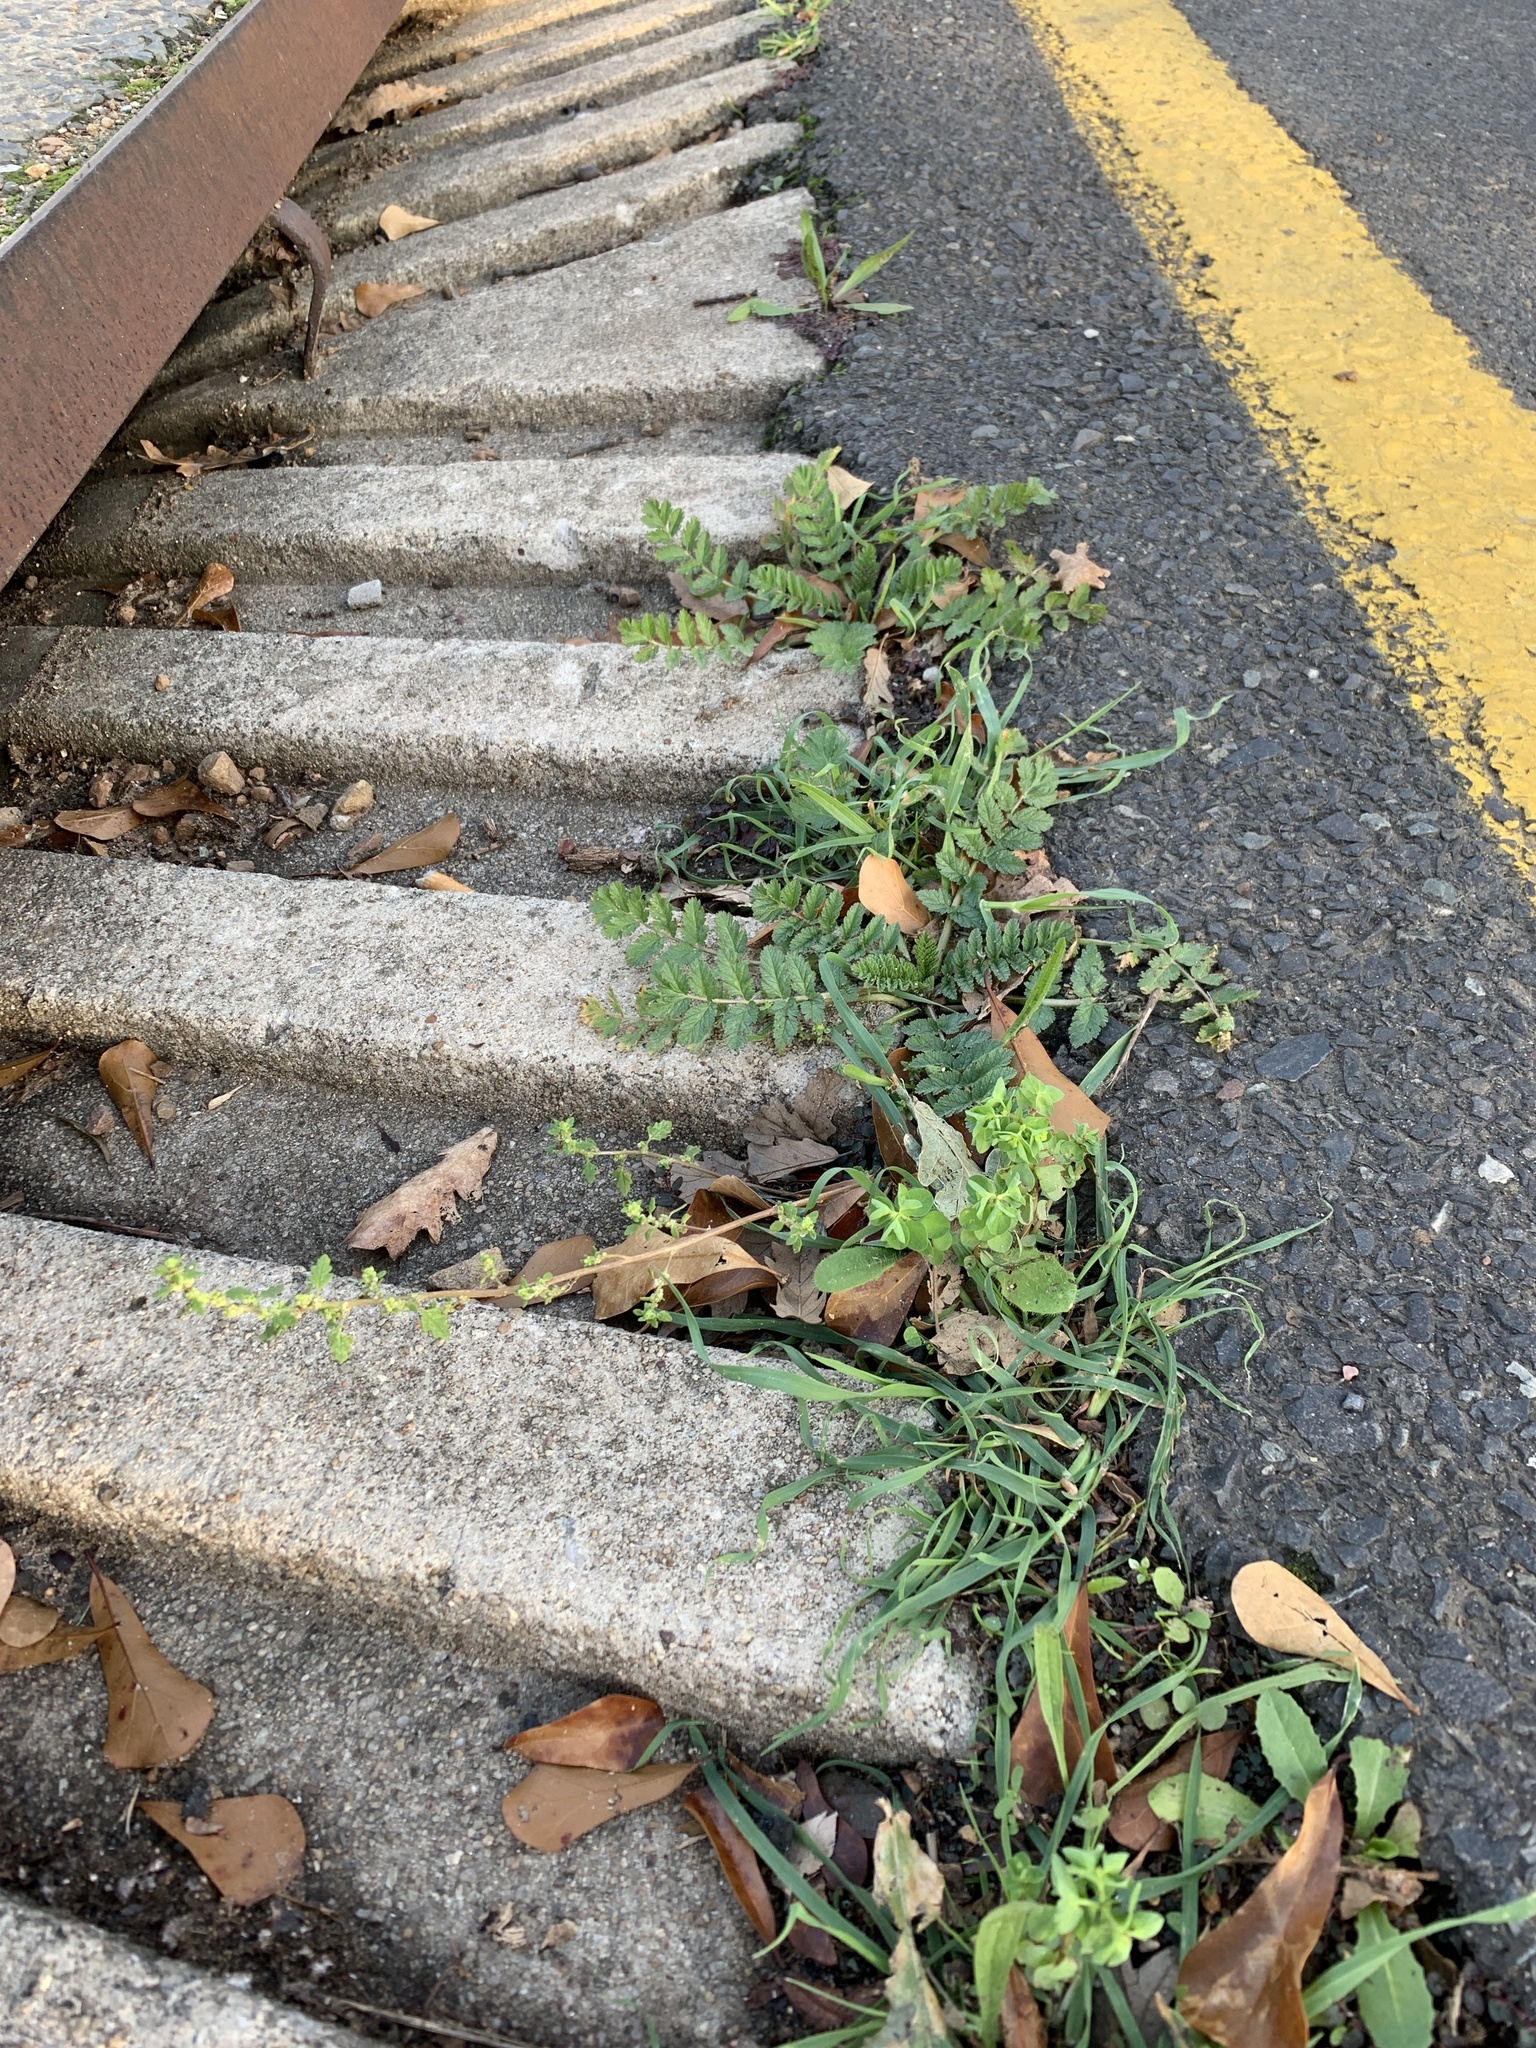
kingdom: Plantae
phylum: Tracheophyta
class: Magnoliopsida
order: Malpighiales
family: Euphorbiaceae
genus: Euphorbia
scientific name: Euphorbia peplus
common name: Petty spurge
